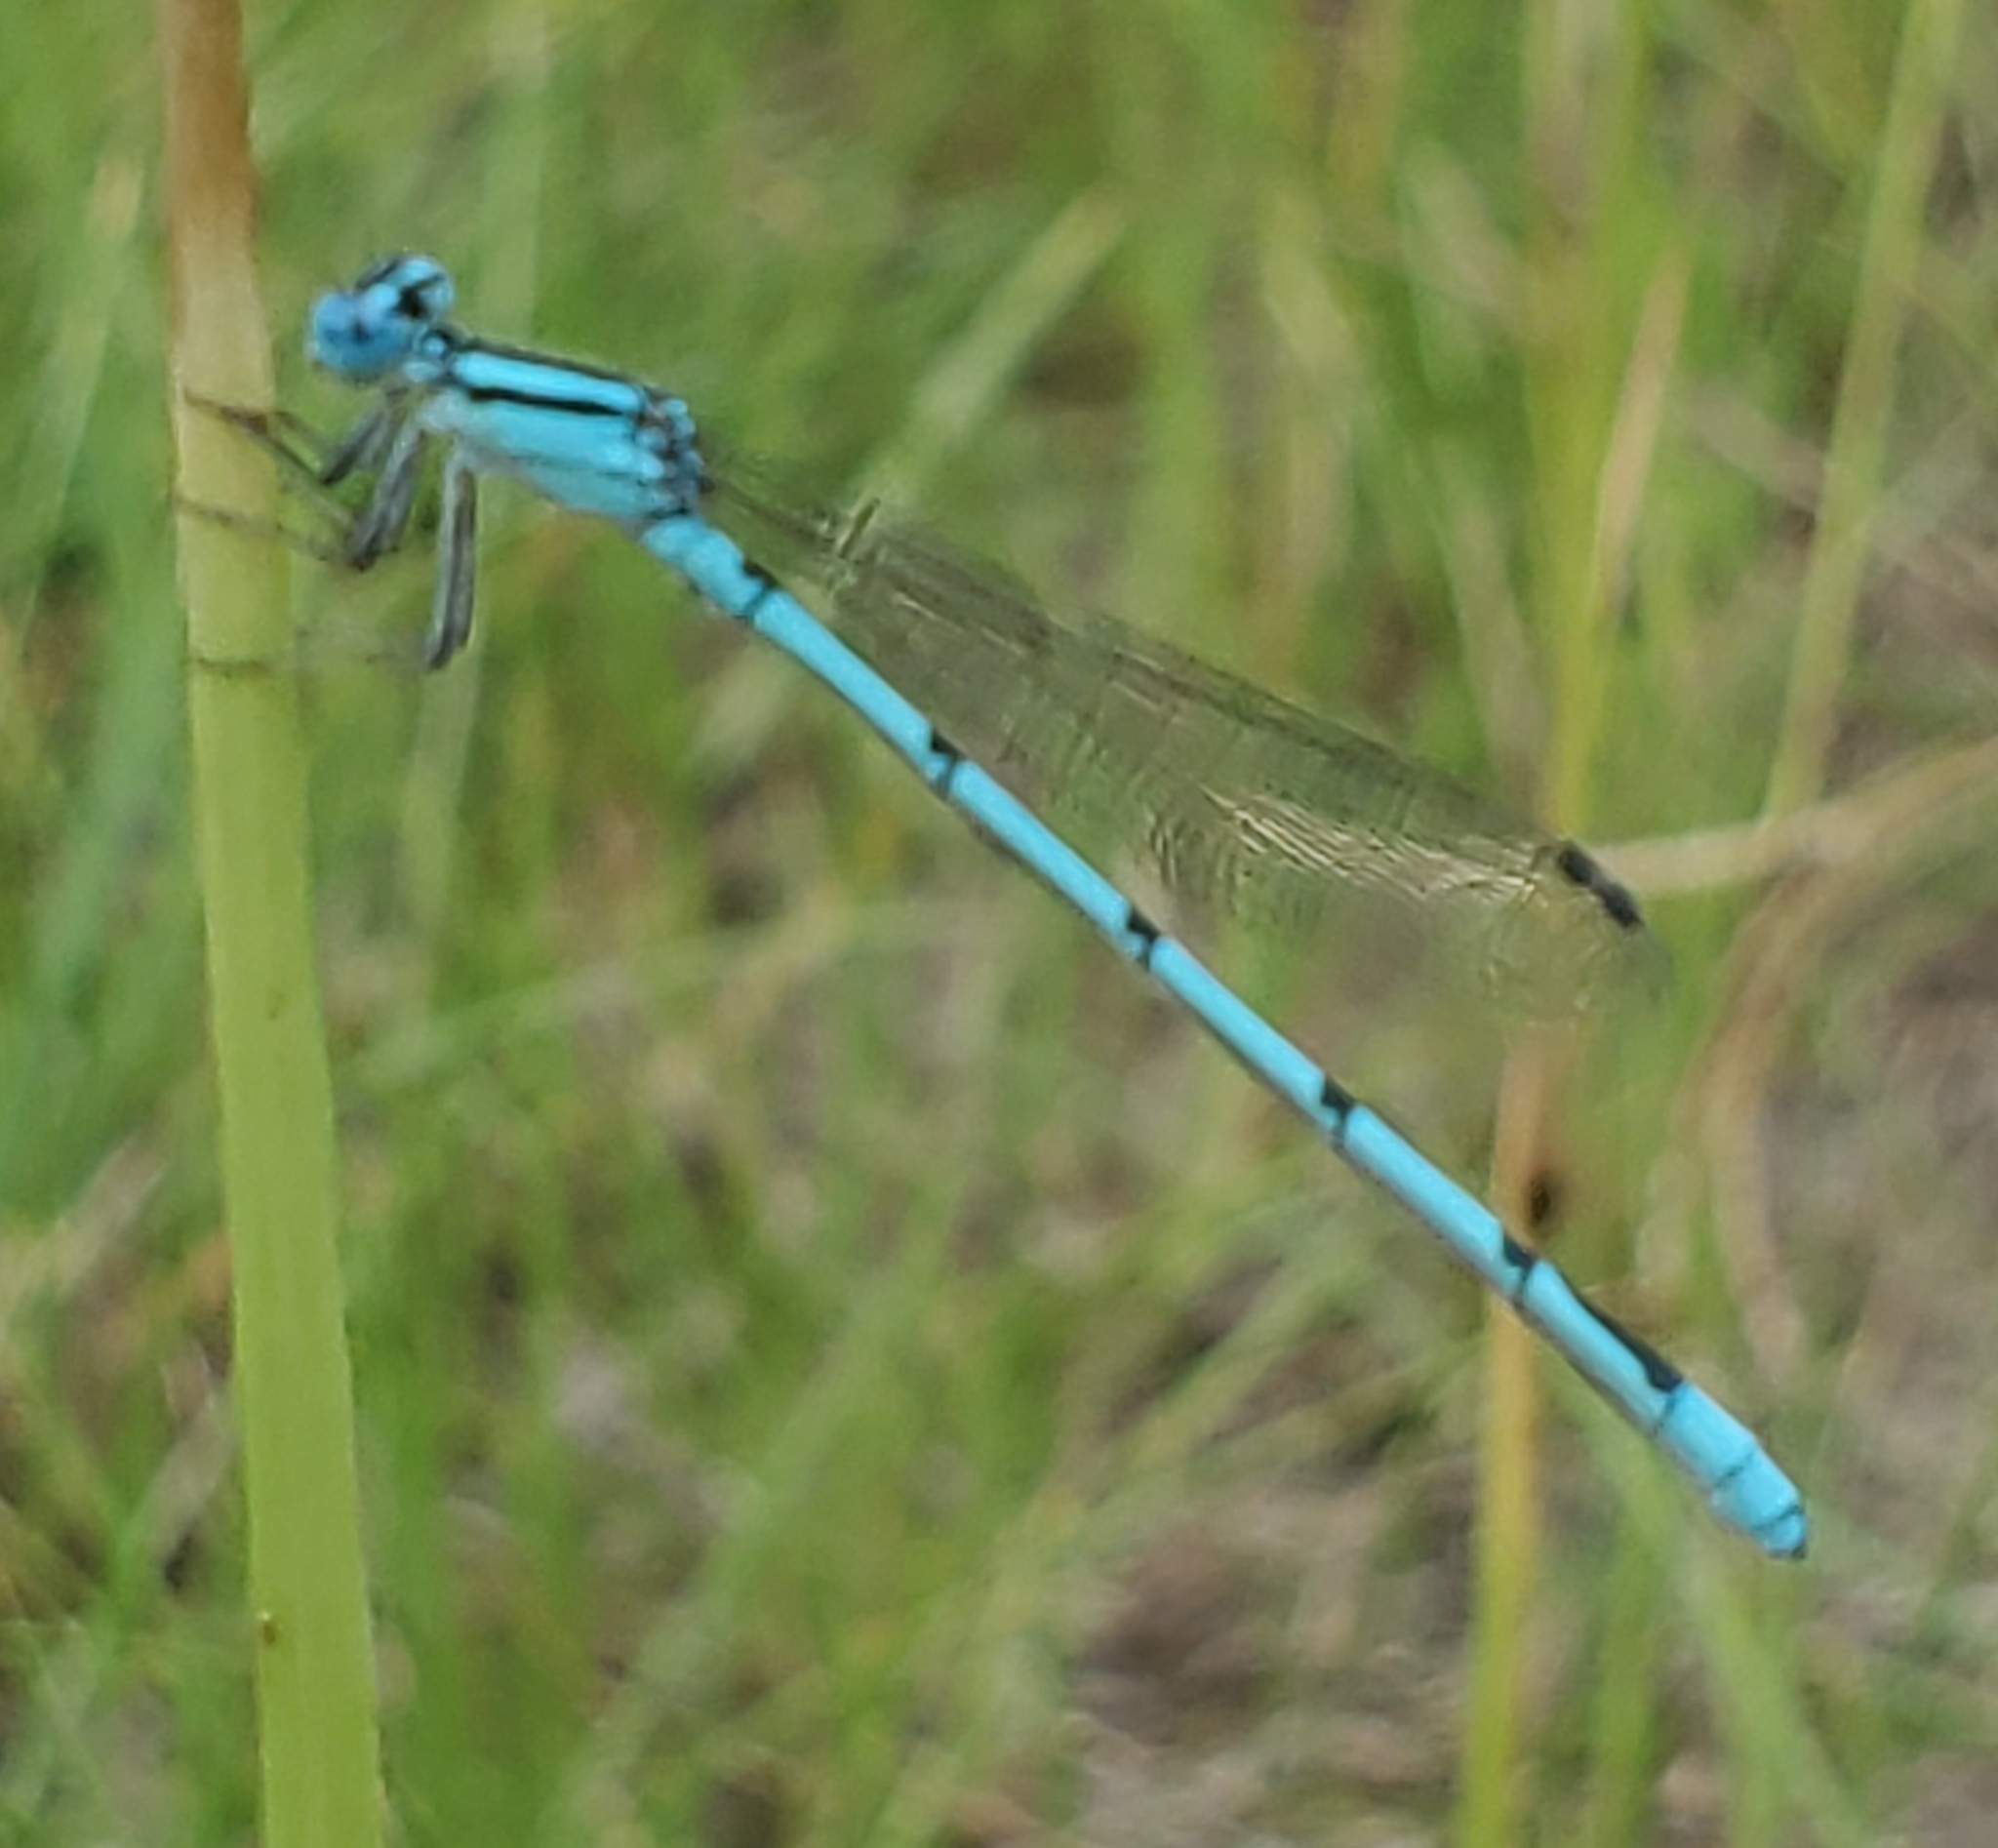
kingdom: Animalia
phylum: Arthropoda
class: Insecta
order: Odonata
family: Coenagrionidae
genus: Enallagma
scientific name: Enallagma doubledayi
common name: Atlantic bluet
